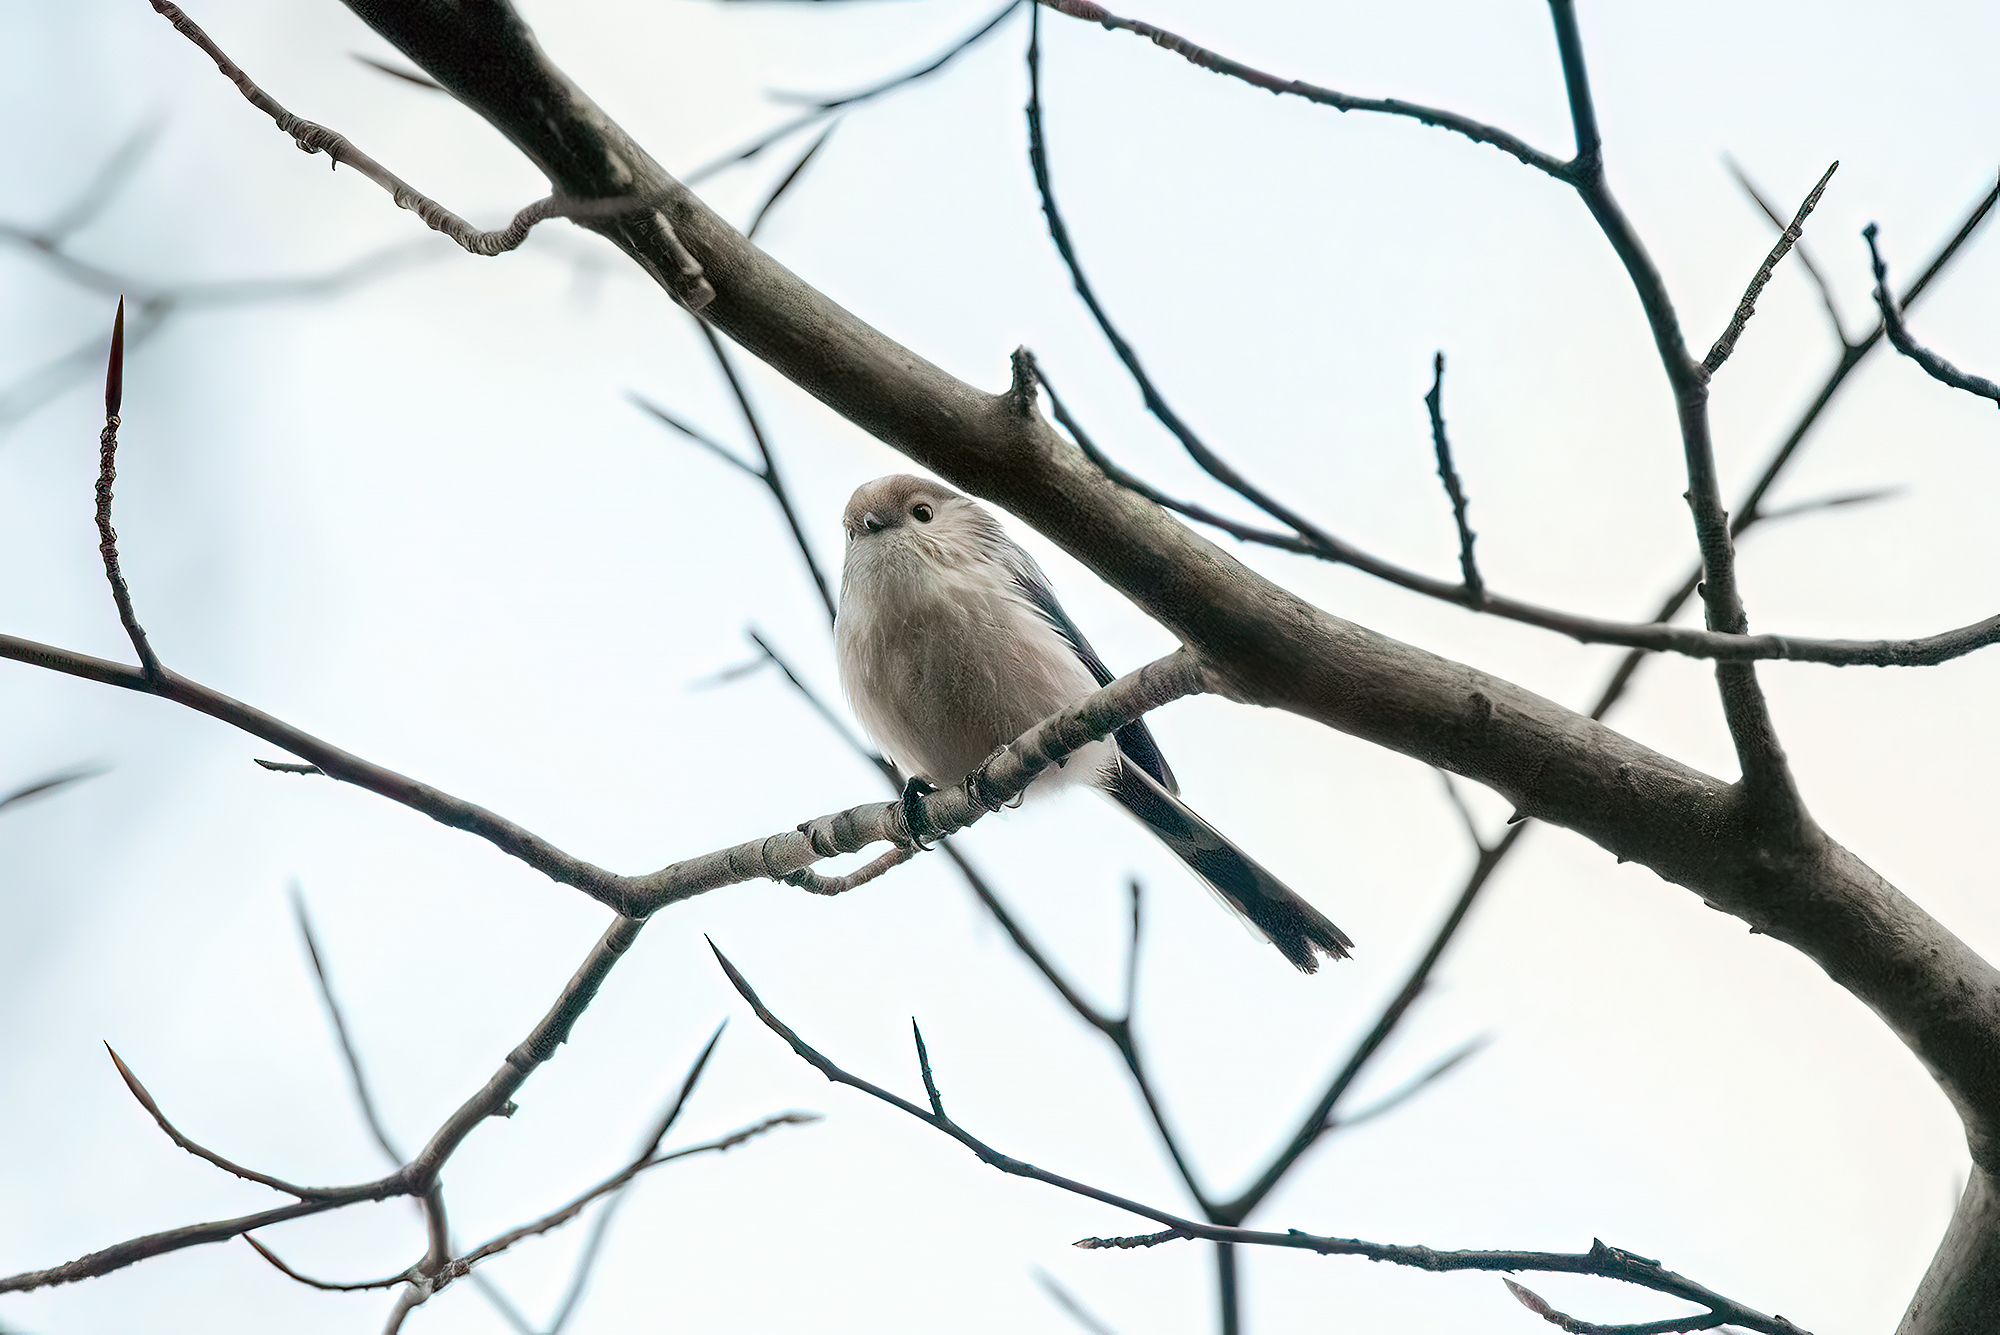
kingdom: Animalia
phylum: Chordata
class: Aves
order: Passeriformes
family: Aegithalidae
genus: Aegithalos
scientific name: Aegithalos caudatus
